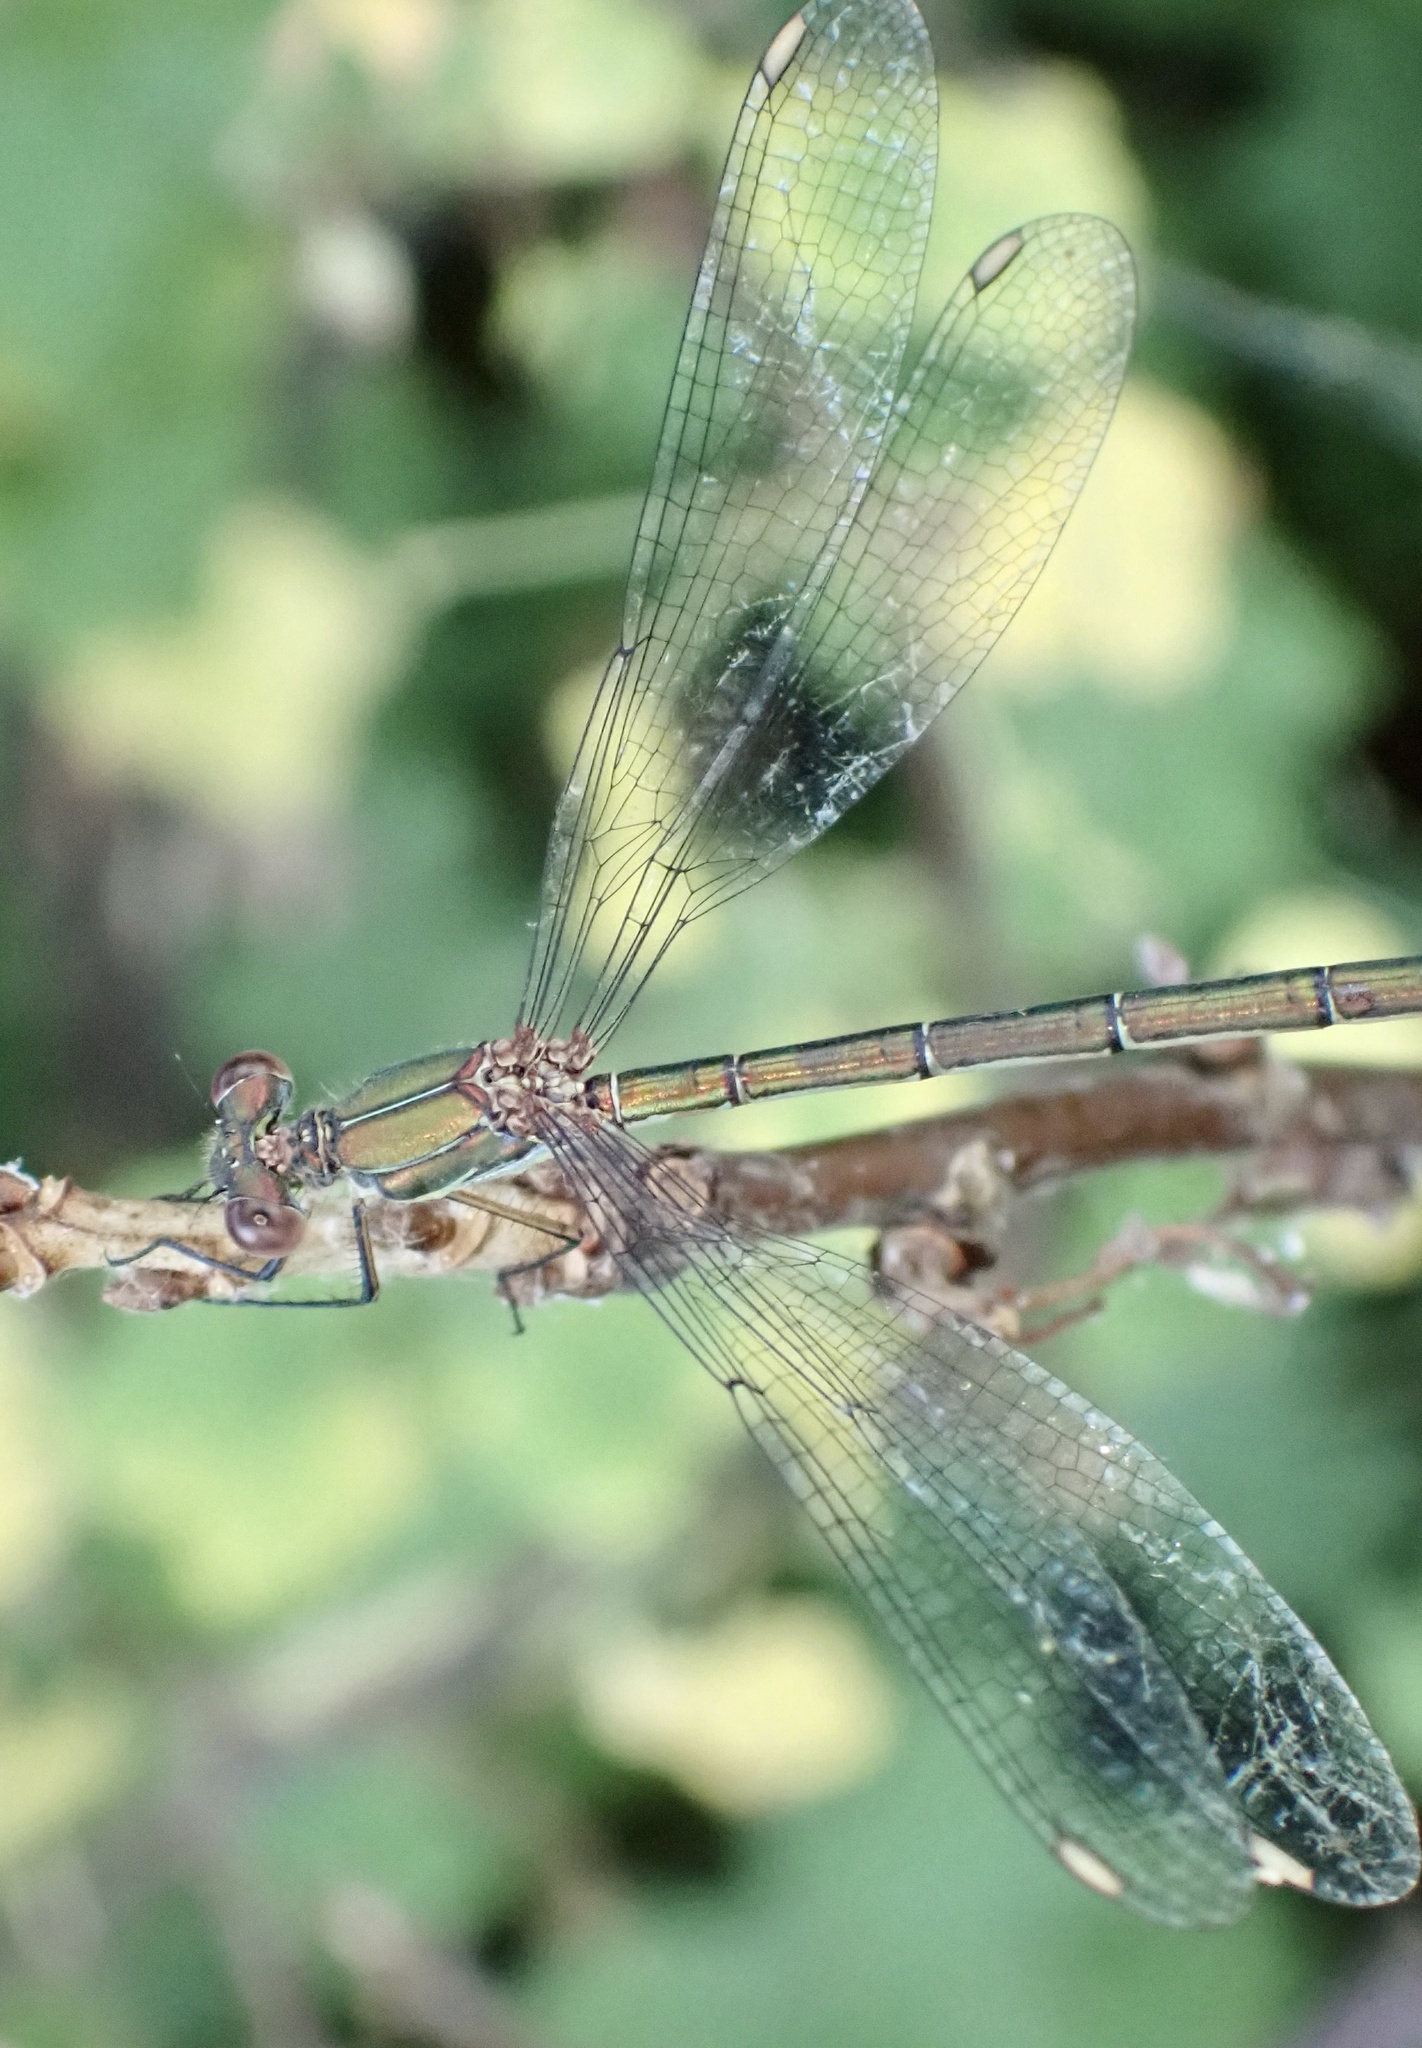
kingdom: Animalia
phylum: Arthropoda
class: Insecta
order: Odonata
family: Lestidae
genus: Chalcolestes
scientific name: Chalcolestes viridis
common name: Green emerald damselfly
